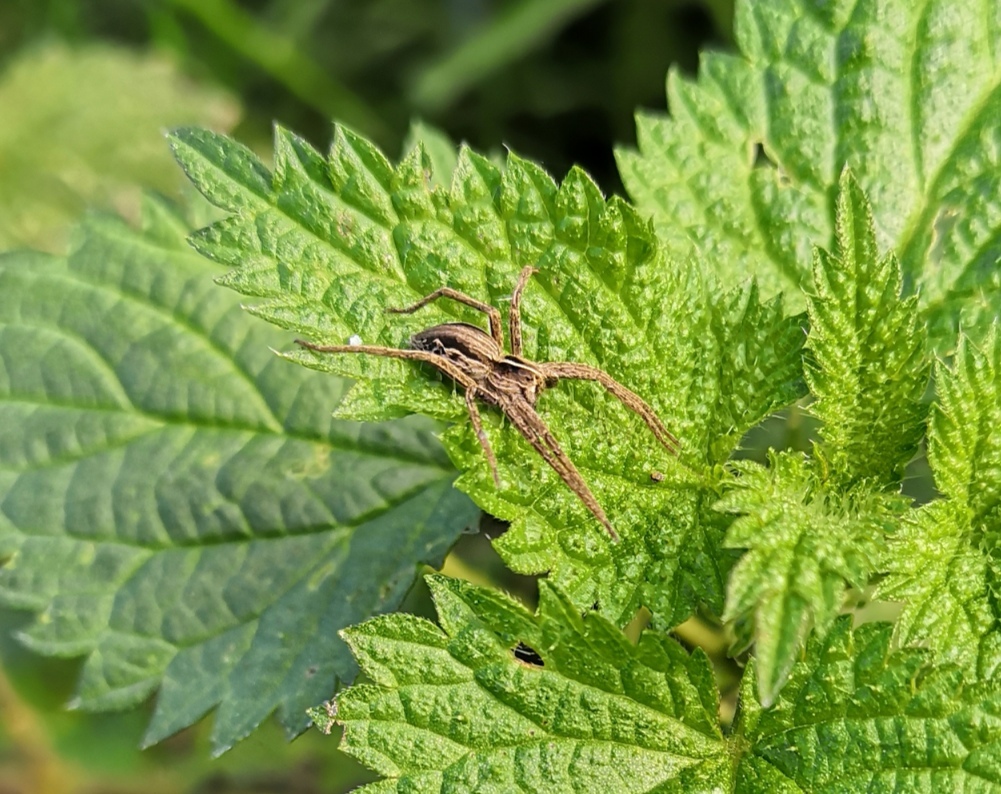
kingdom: Animalia
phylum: Arthropoda
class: Arachnida
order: Araneae
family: Pisauridae
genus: Pisaura
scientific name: Pisaura mirabilis
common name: Tent spider
